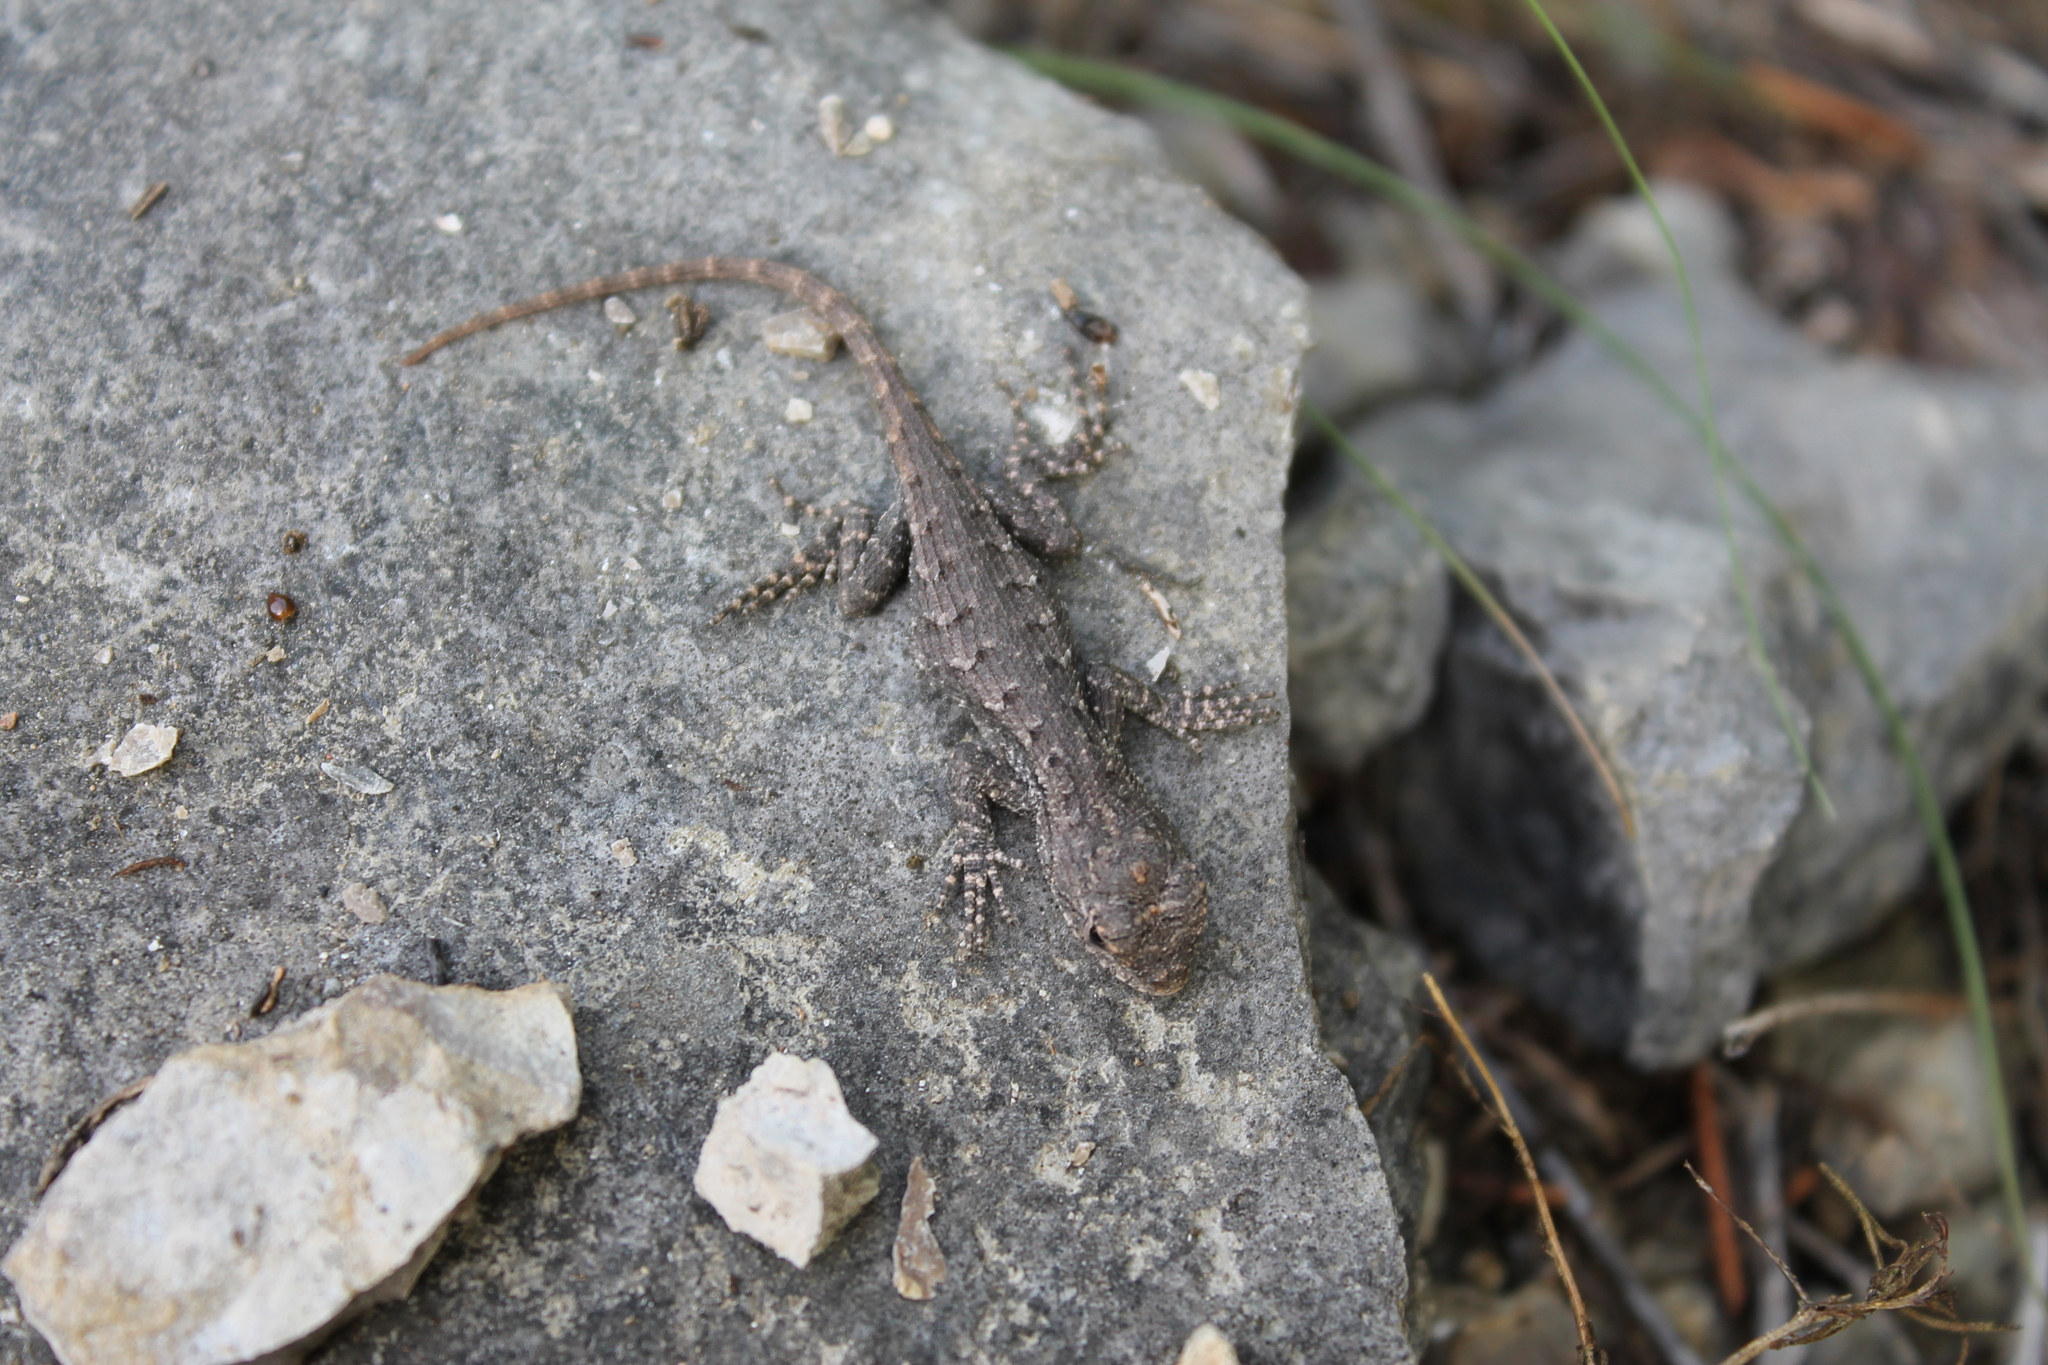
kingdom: Animalia
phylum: Chordata
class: Squamata
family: Phrynosomatidae
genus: Sceloporus
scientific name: Sceloporus undulatus
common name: Eastern fence lizard
